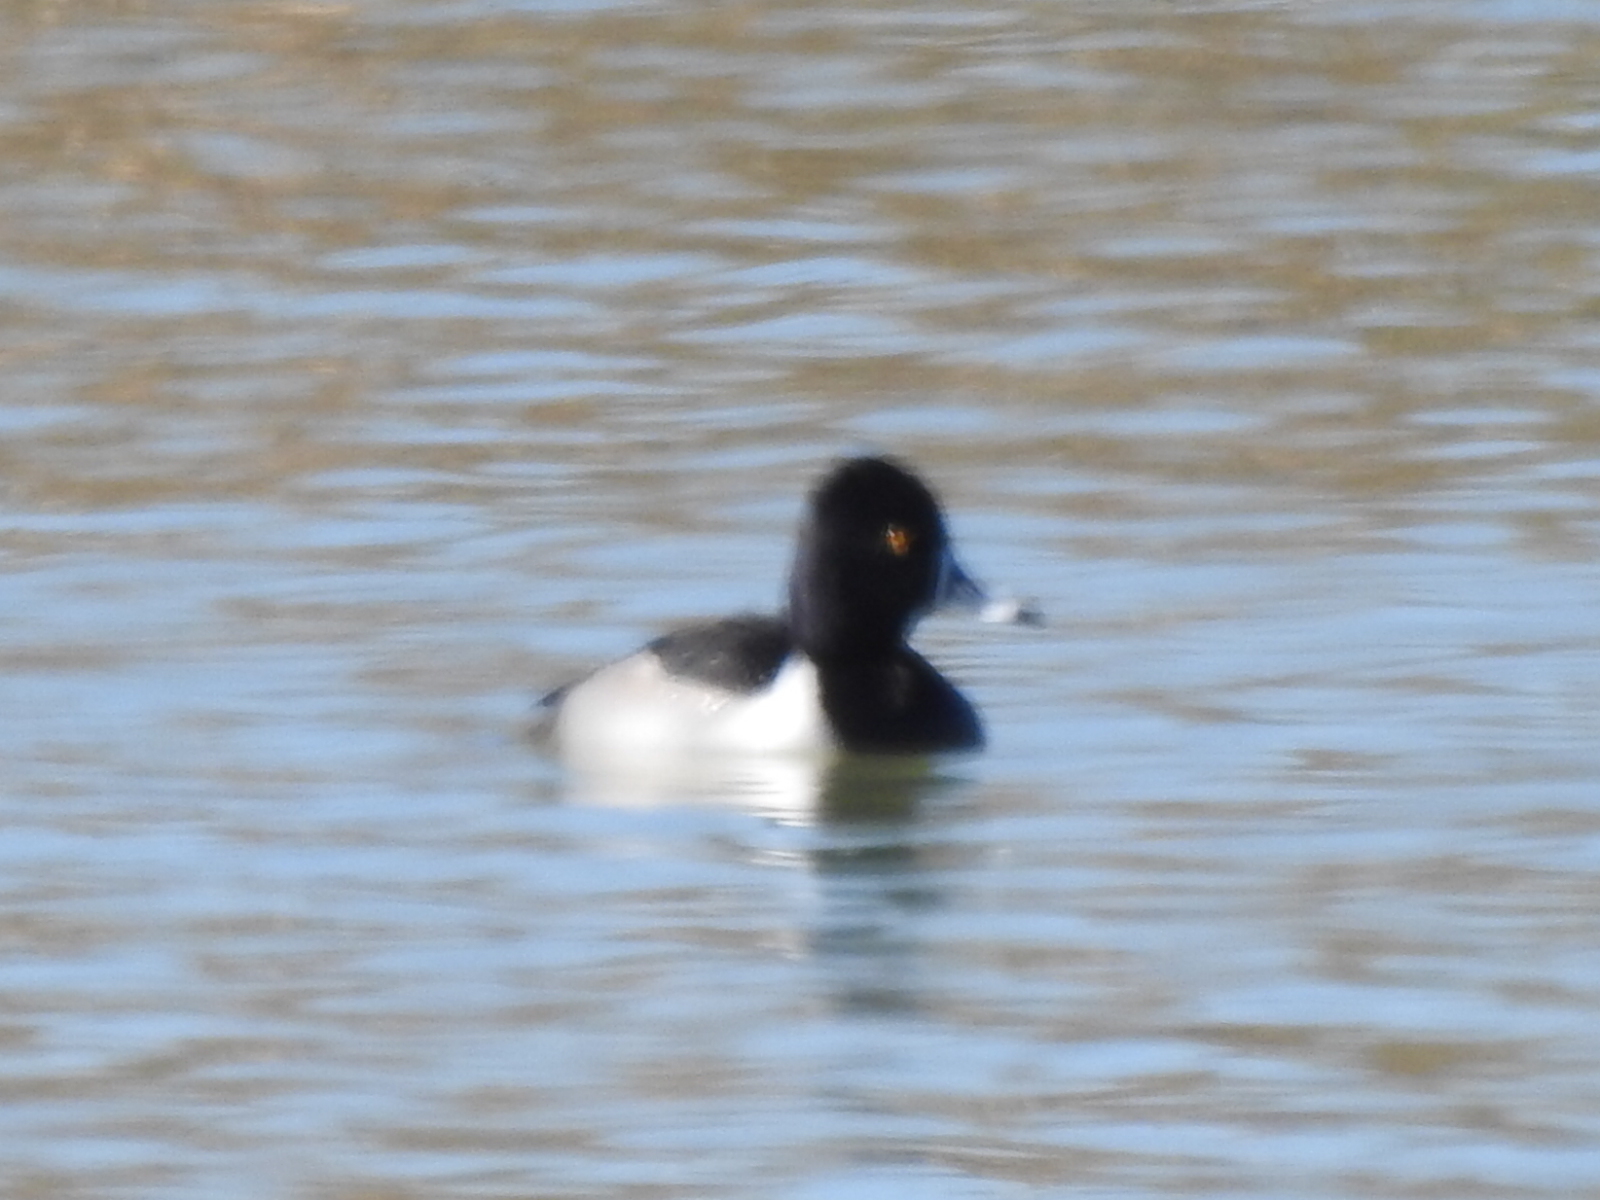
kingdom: Animalia
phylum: Chordata
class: Aves
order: Anseriformes
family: Anatidae
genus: Aythya
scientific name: Aythya collaris
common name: Ring-necked duck
